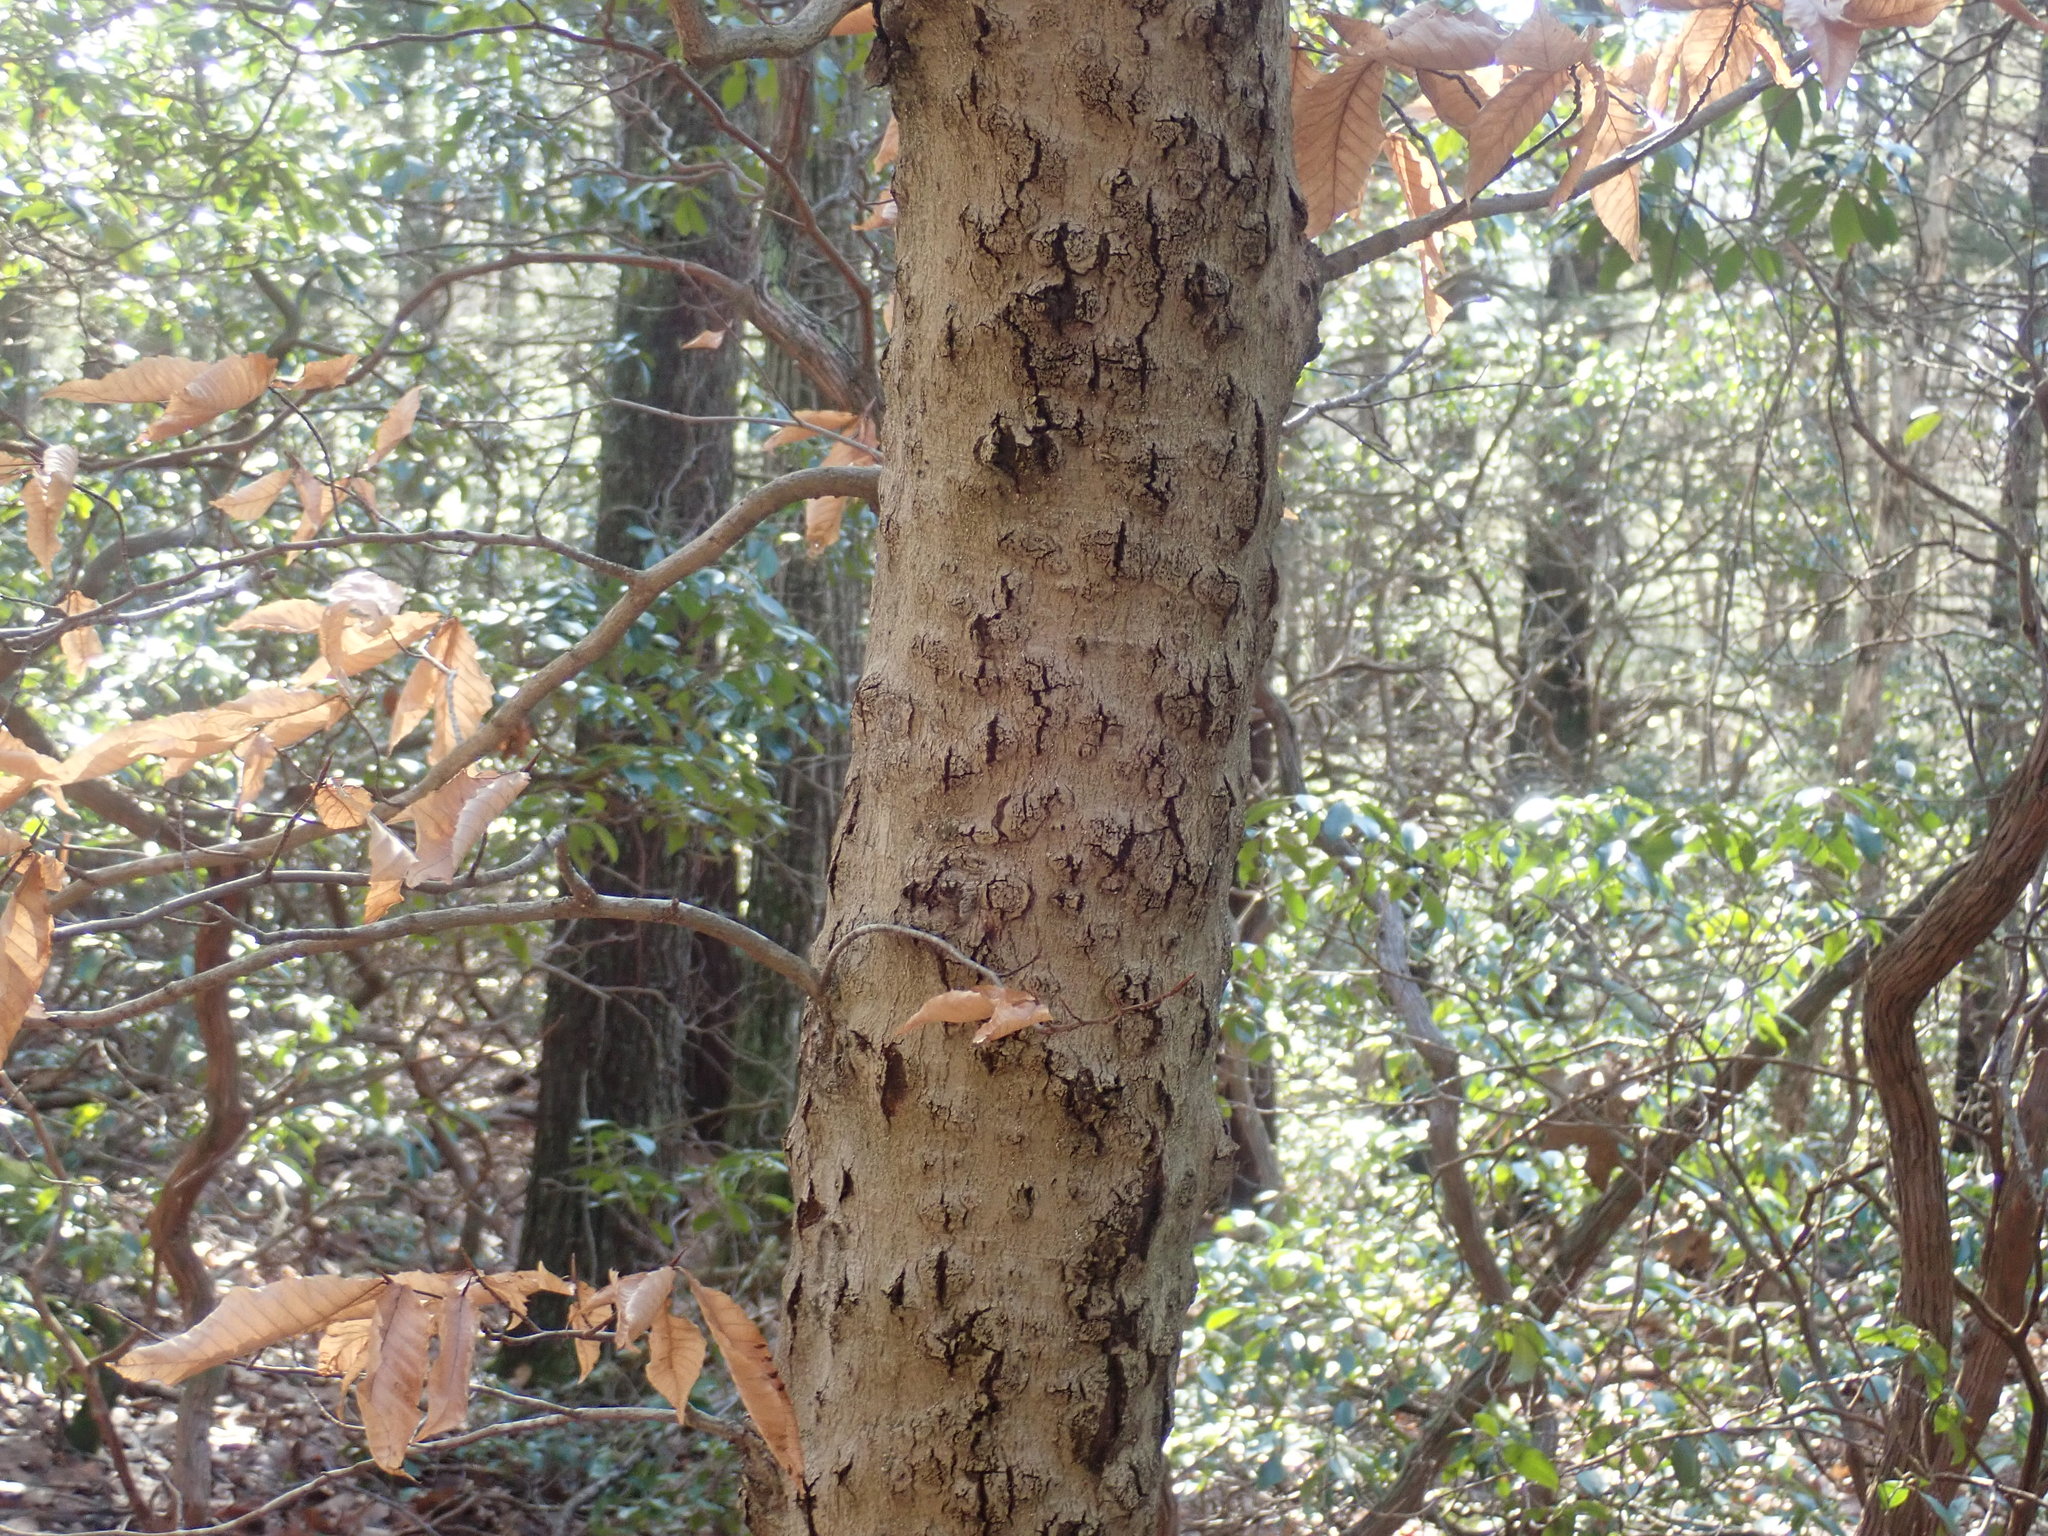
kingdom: Fungi
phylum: Ascomycota
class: Sordariomycetes
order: Hypocreales
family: Nectriaceae
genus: Neonectria
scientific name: Neonectria faginata
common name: Beech bark canker
